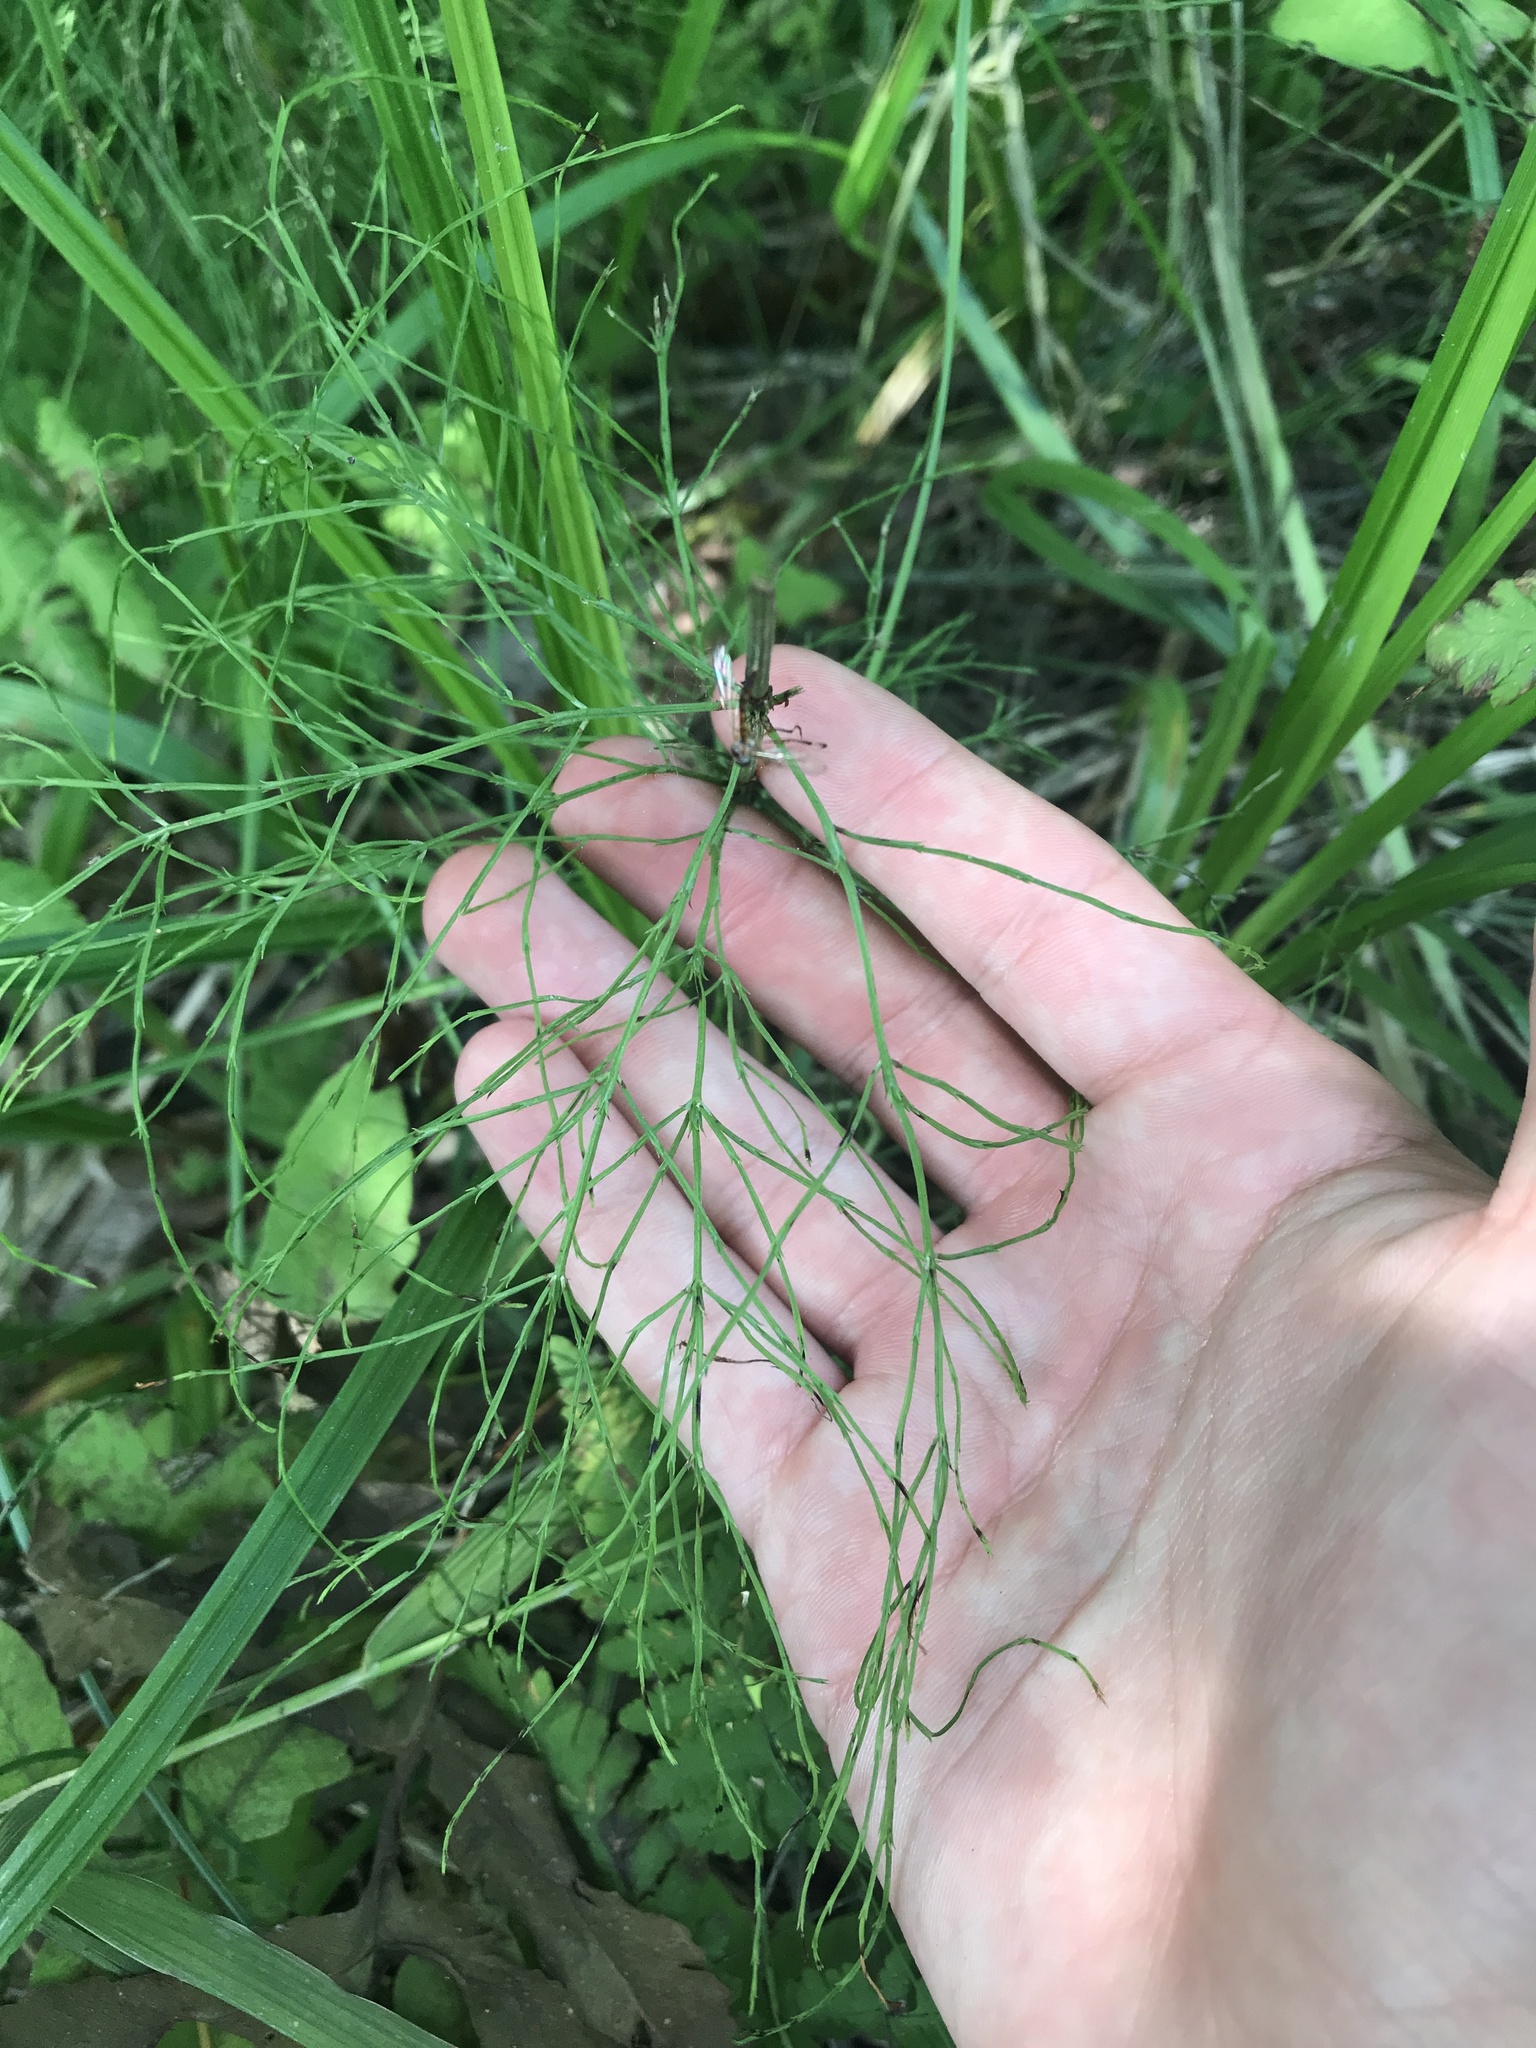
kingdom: Plantae
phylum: Tracheophyta
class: Polypodiopsida
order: Equisetales
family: Equisetaceae
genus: Equisetum
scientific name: Equisetum sylvaticum
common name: Wood horsetail
